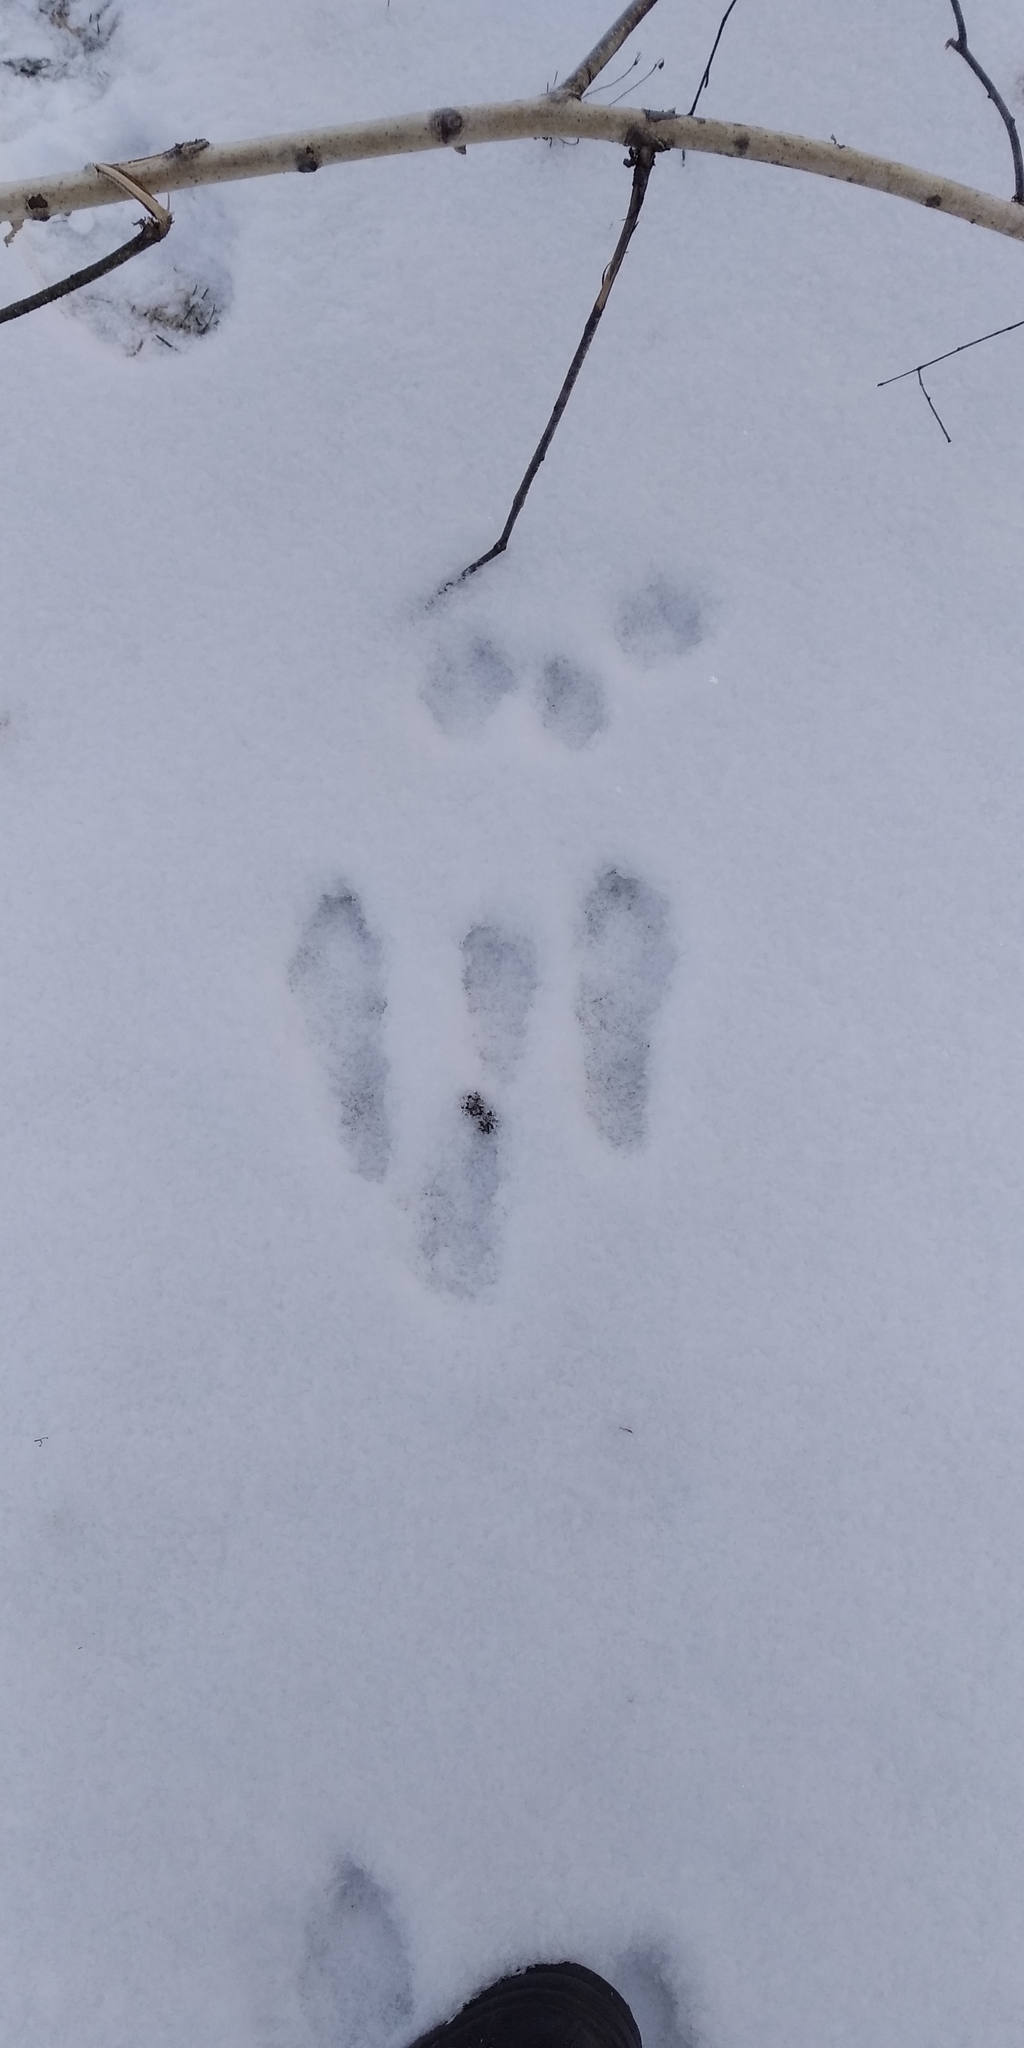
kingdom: Animalia
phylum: Chordata
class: Mammalia
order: Lagomorpha
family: Leporidae
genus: Lepus
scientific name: Lepus europaeus
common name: European hare
